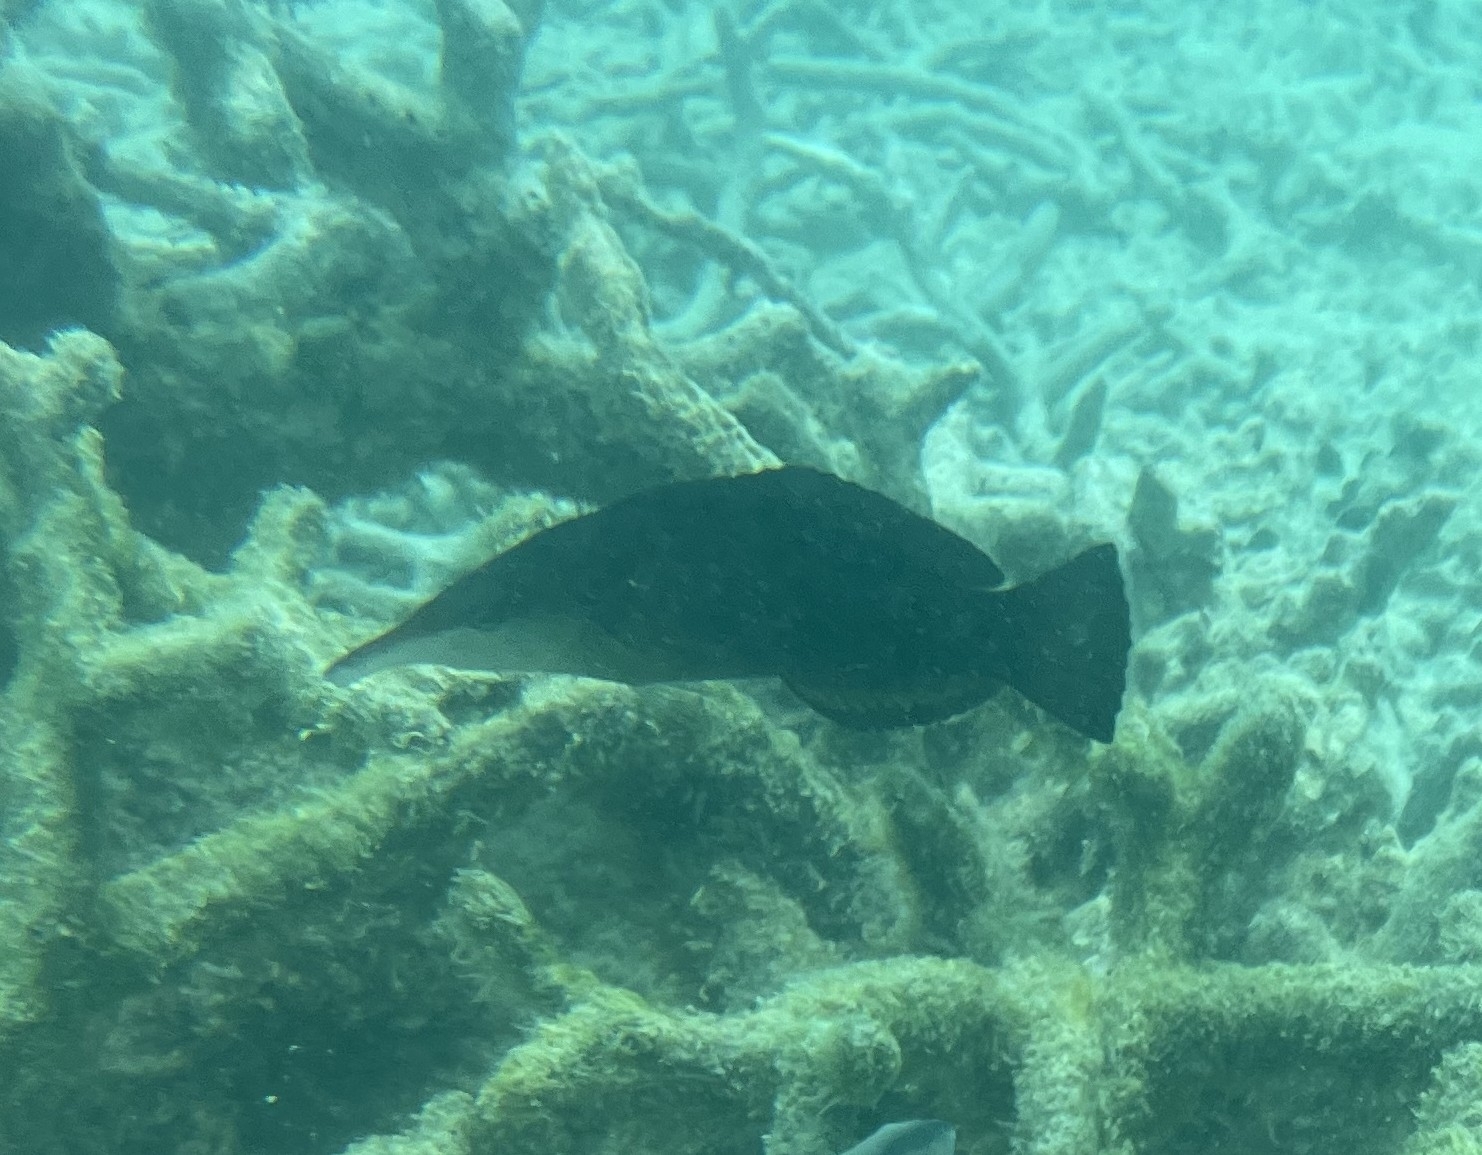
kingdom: Animalia
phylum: Chordata
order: Perciformes
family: Labridae
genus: Gomphosus
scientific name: Gomphosus caeruleus
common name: Bird wrasse
